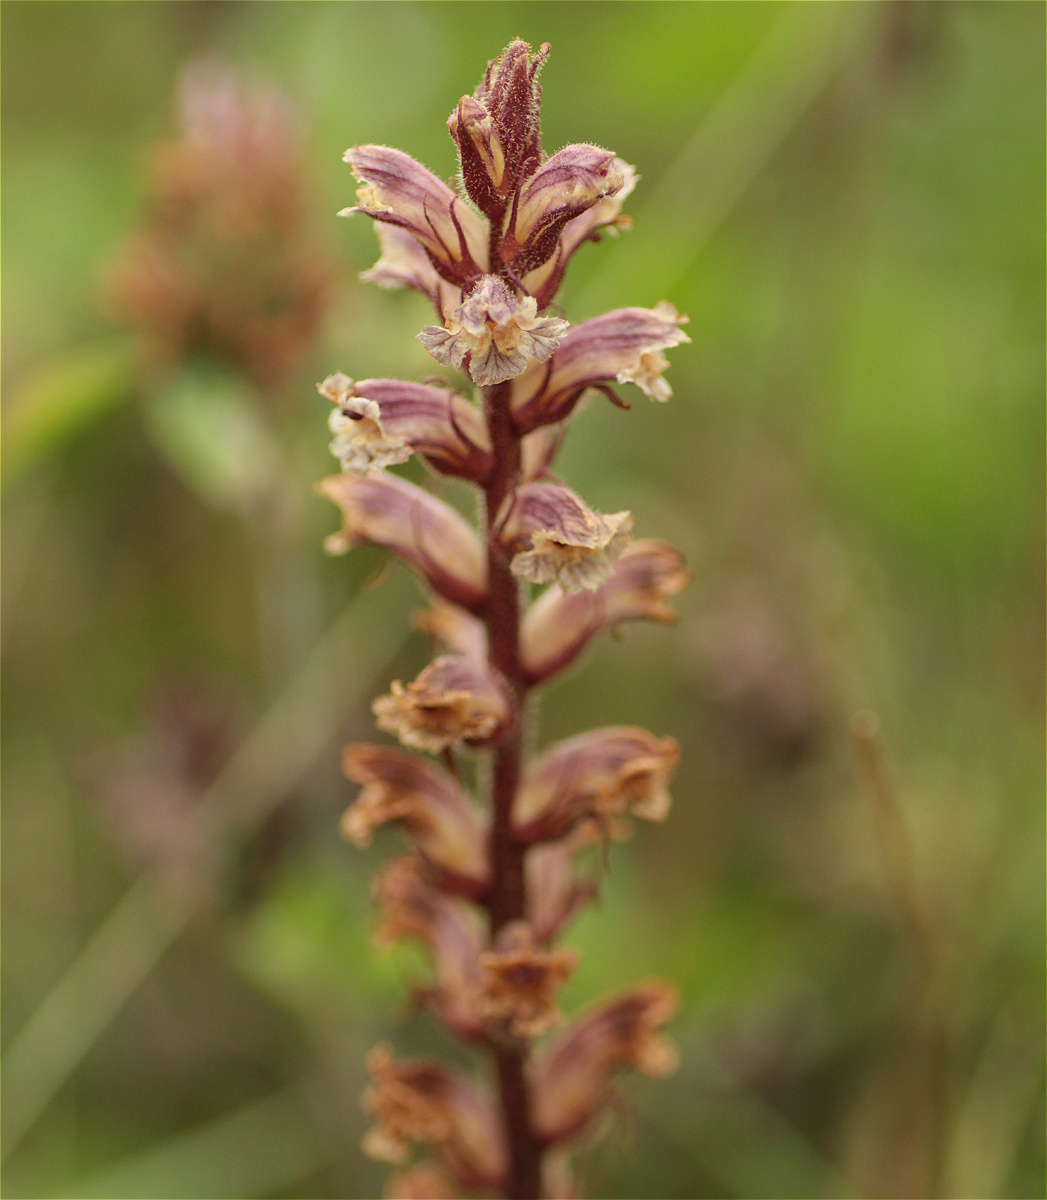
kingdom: Plantae
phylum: Tracheophyta
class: Magnoliopsida
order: Lamiales
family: Orobanchaceae
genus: Orobanche
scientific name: Orobanche minor
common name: Common broomrape
